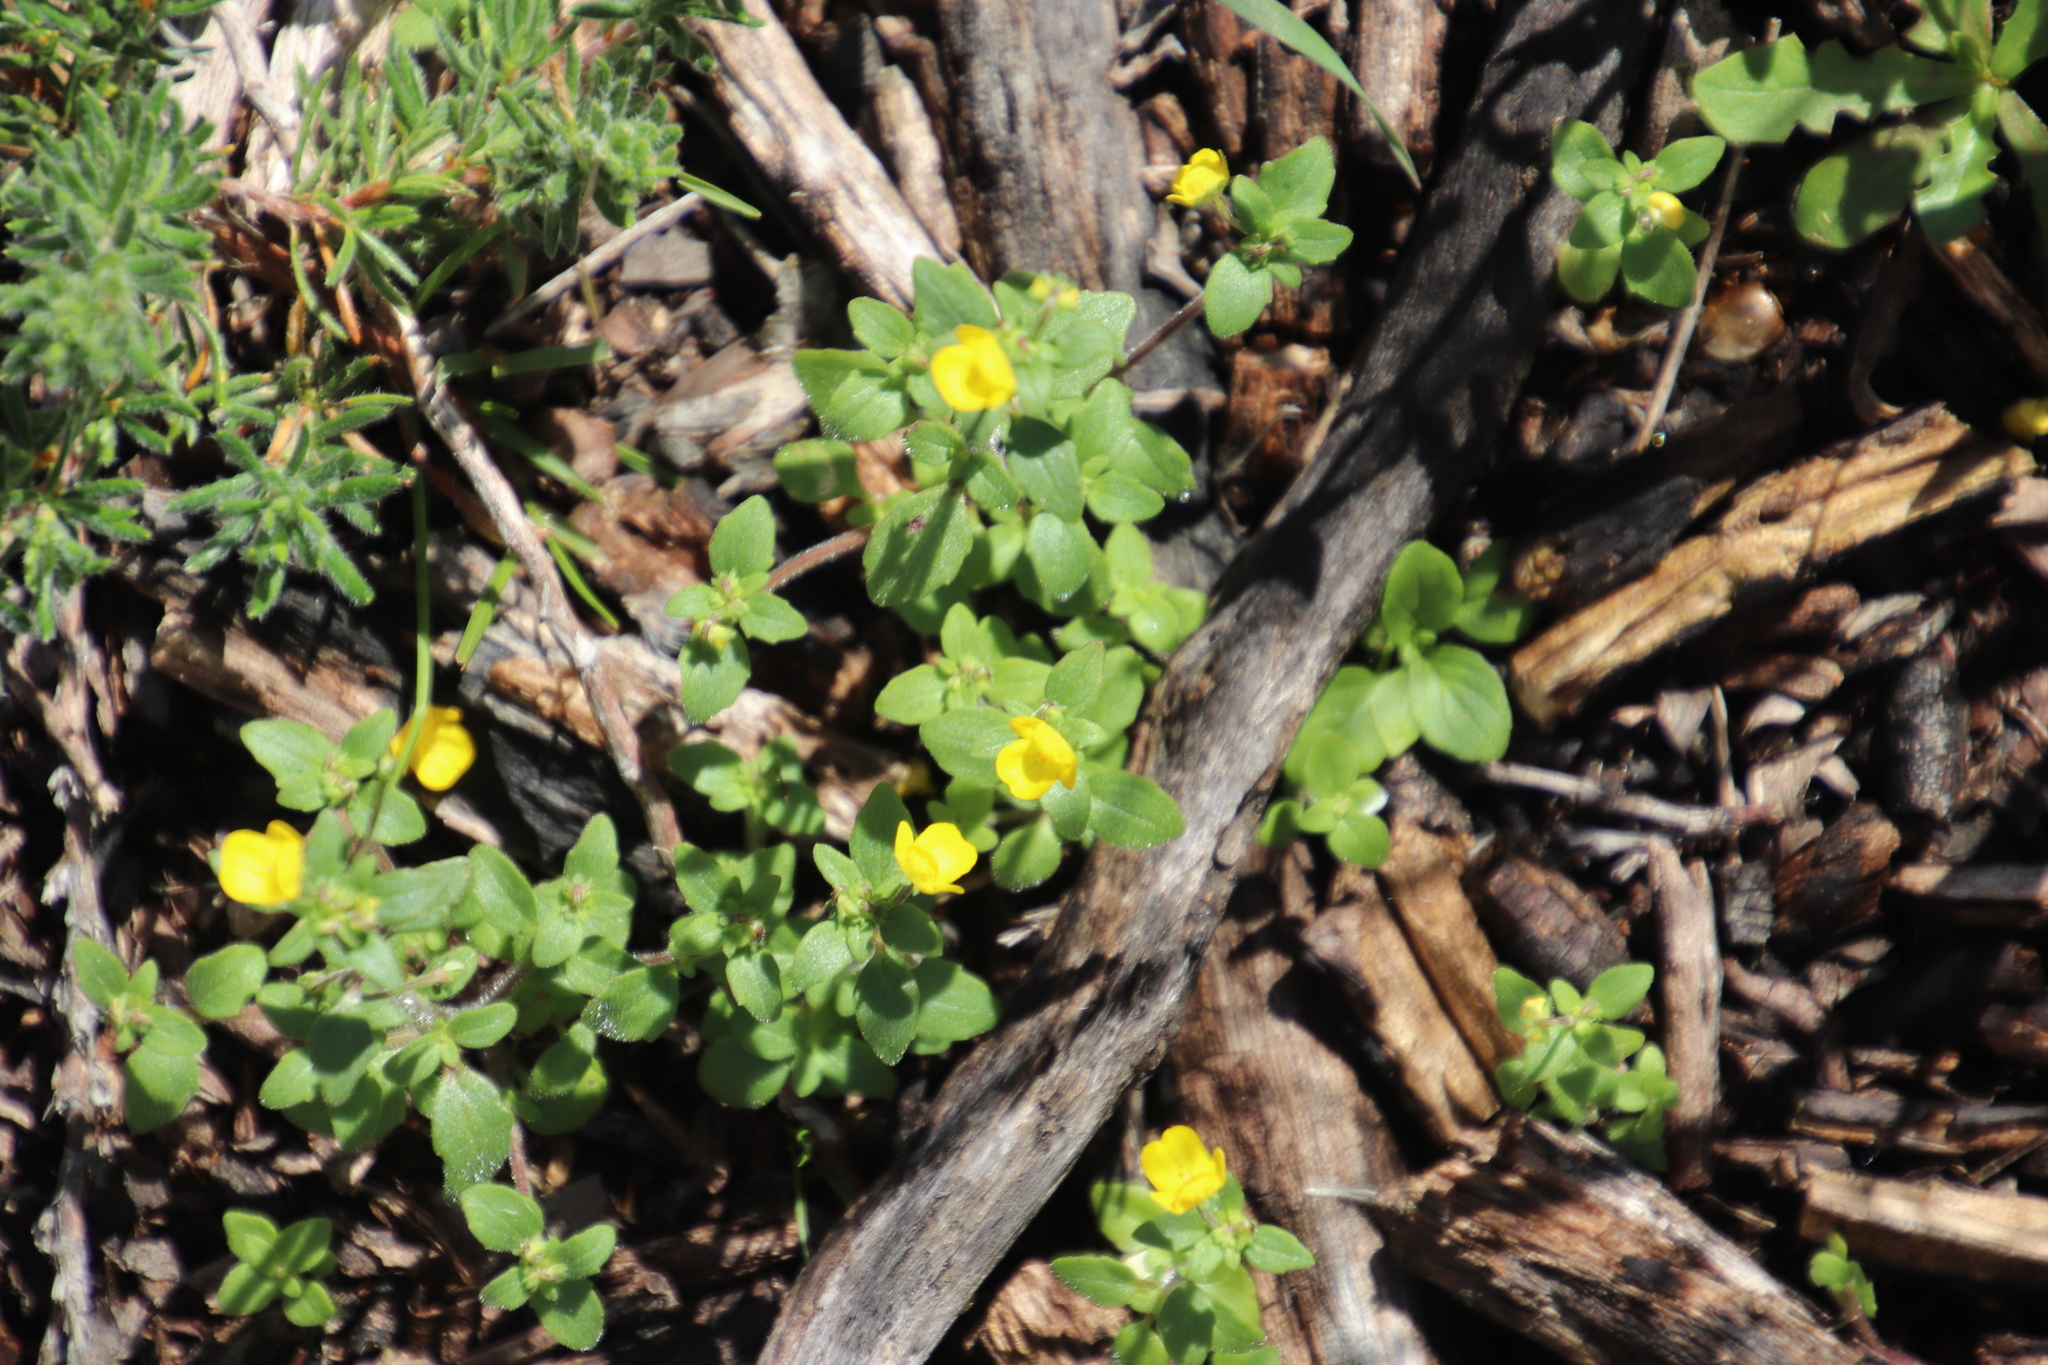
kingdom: Plantae
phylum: Tracheophyta
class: Magnoliopsida
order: Lamiales
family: Scrophulariaceae
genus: Hemimeris
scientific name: Hemimeris racemosa
